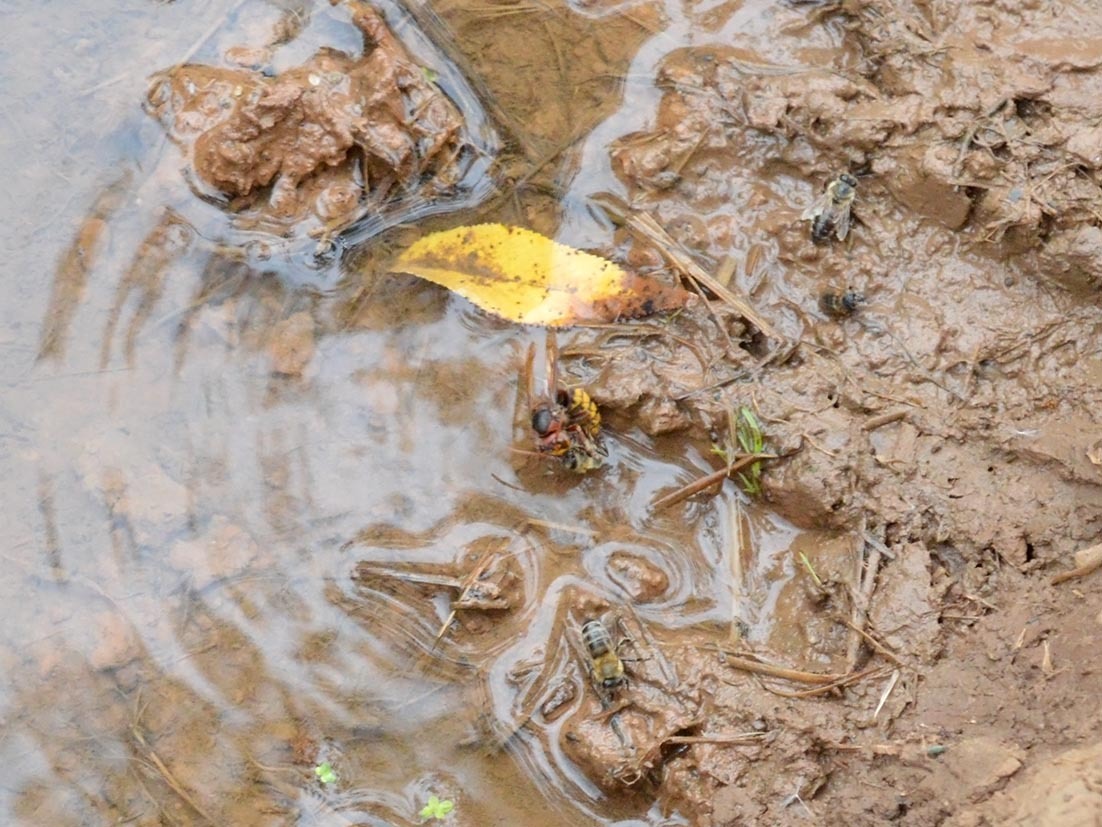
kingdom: Animalia
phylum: Arthropoda
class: Insecta
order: Hymenoptera
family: Vespidae
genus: Vespa
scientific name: Vespa crabro
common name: Hornet
